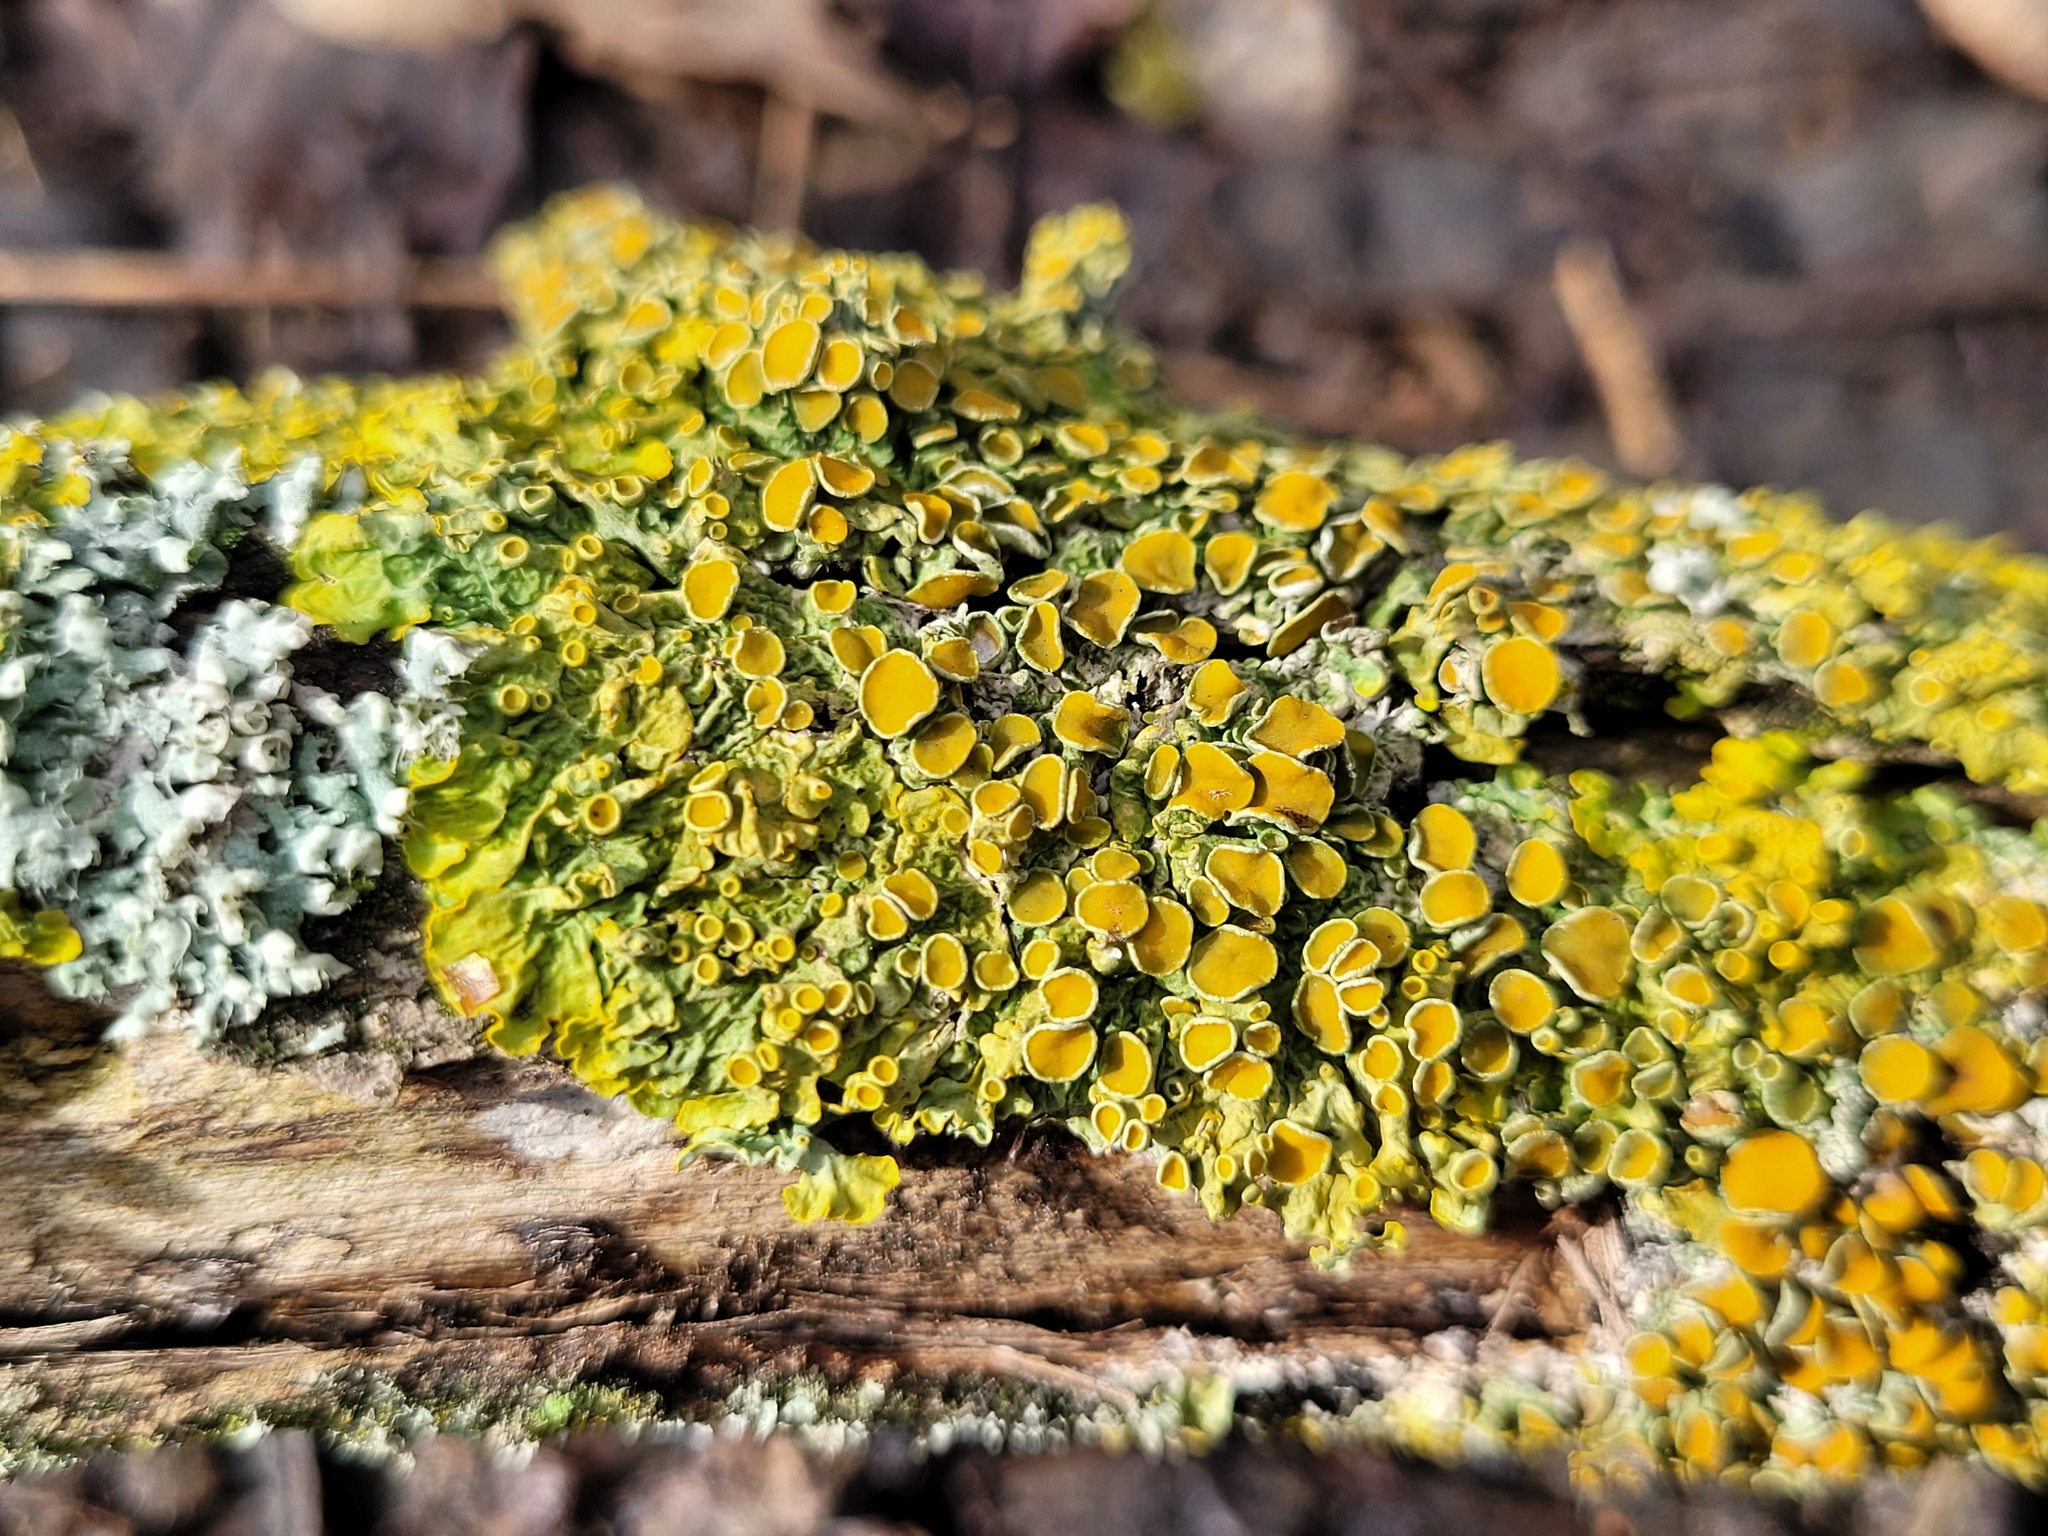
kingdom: Fungi
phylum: Ascomycota
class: Lecanoromycetes
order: Teloschistales
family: Teloschistaceae
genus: Xanthoria
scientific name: Xanthoria parietina
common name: Common orange lichen
